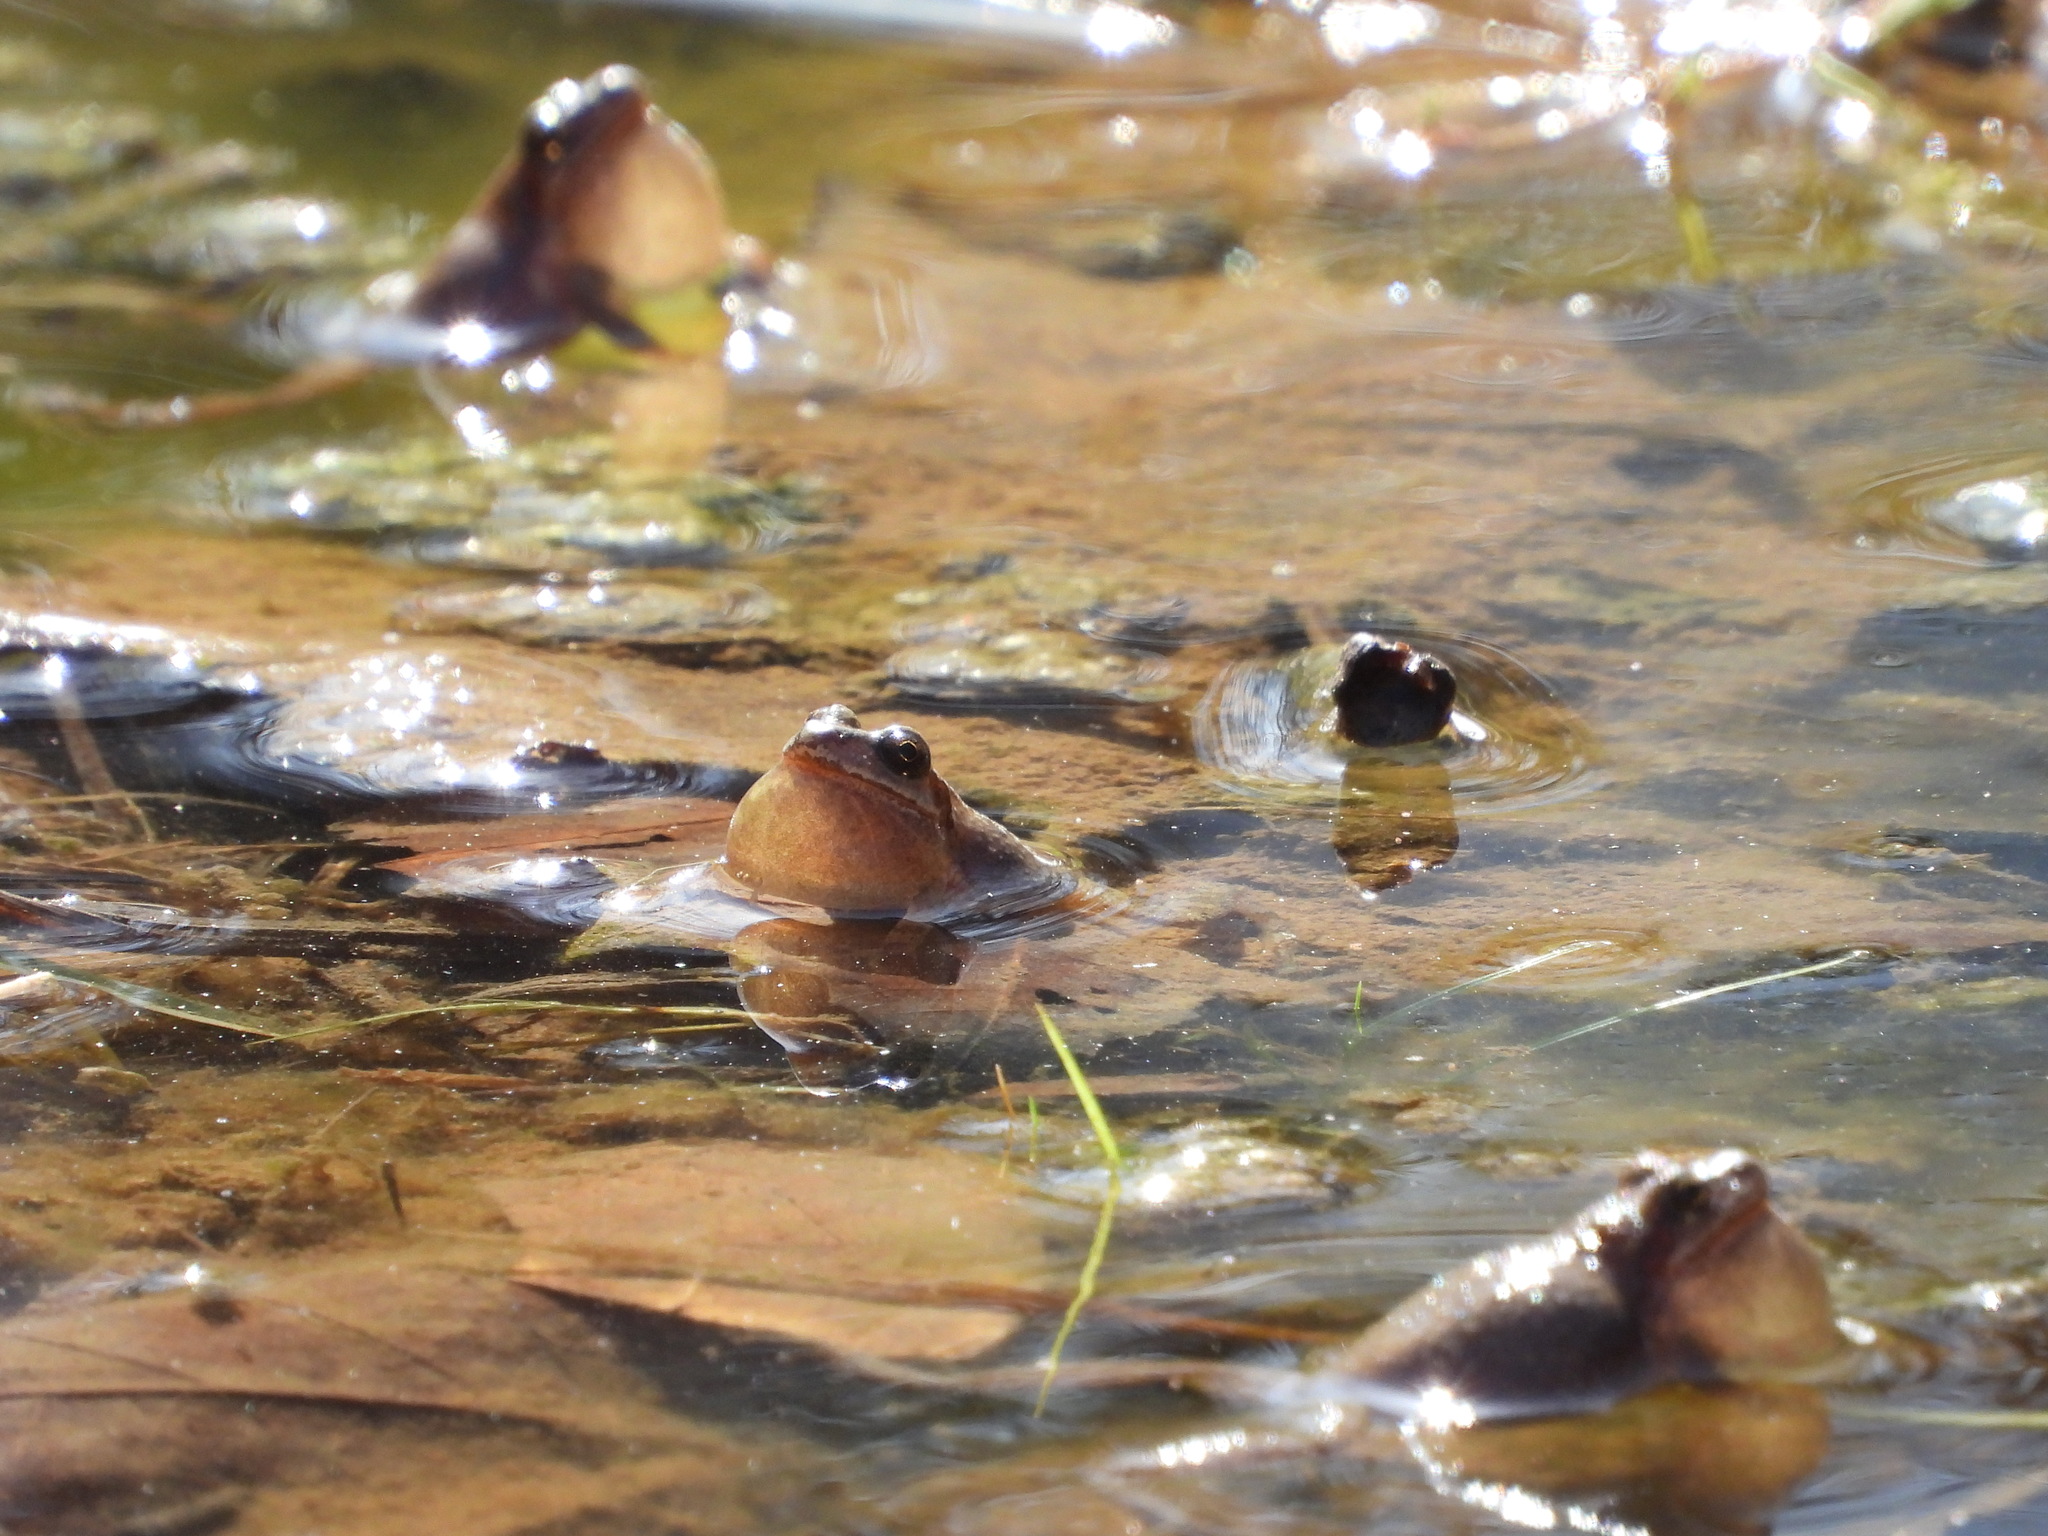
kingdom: Animalia
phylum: Chordata
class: Amphibia
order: Anura
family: Hylidae
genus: Pseudacris
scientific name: Pseudacris brachyphona
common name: Mountain chorus frog
